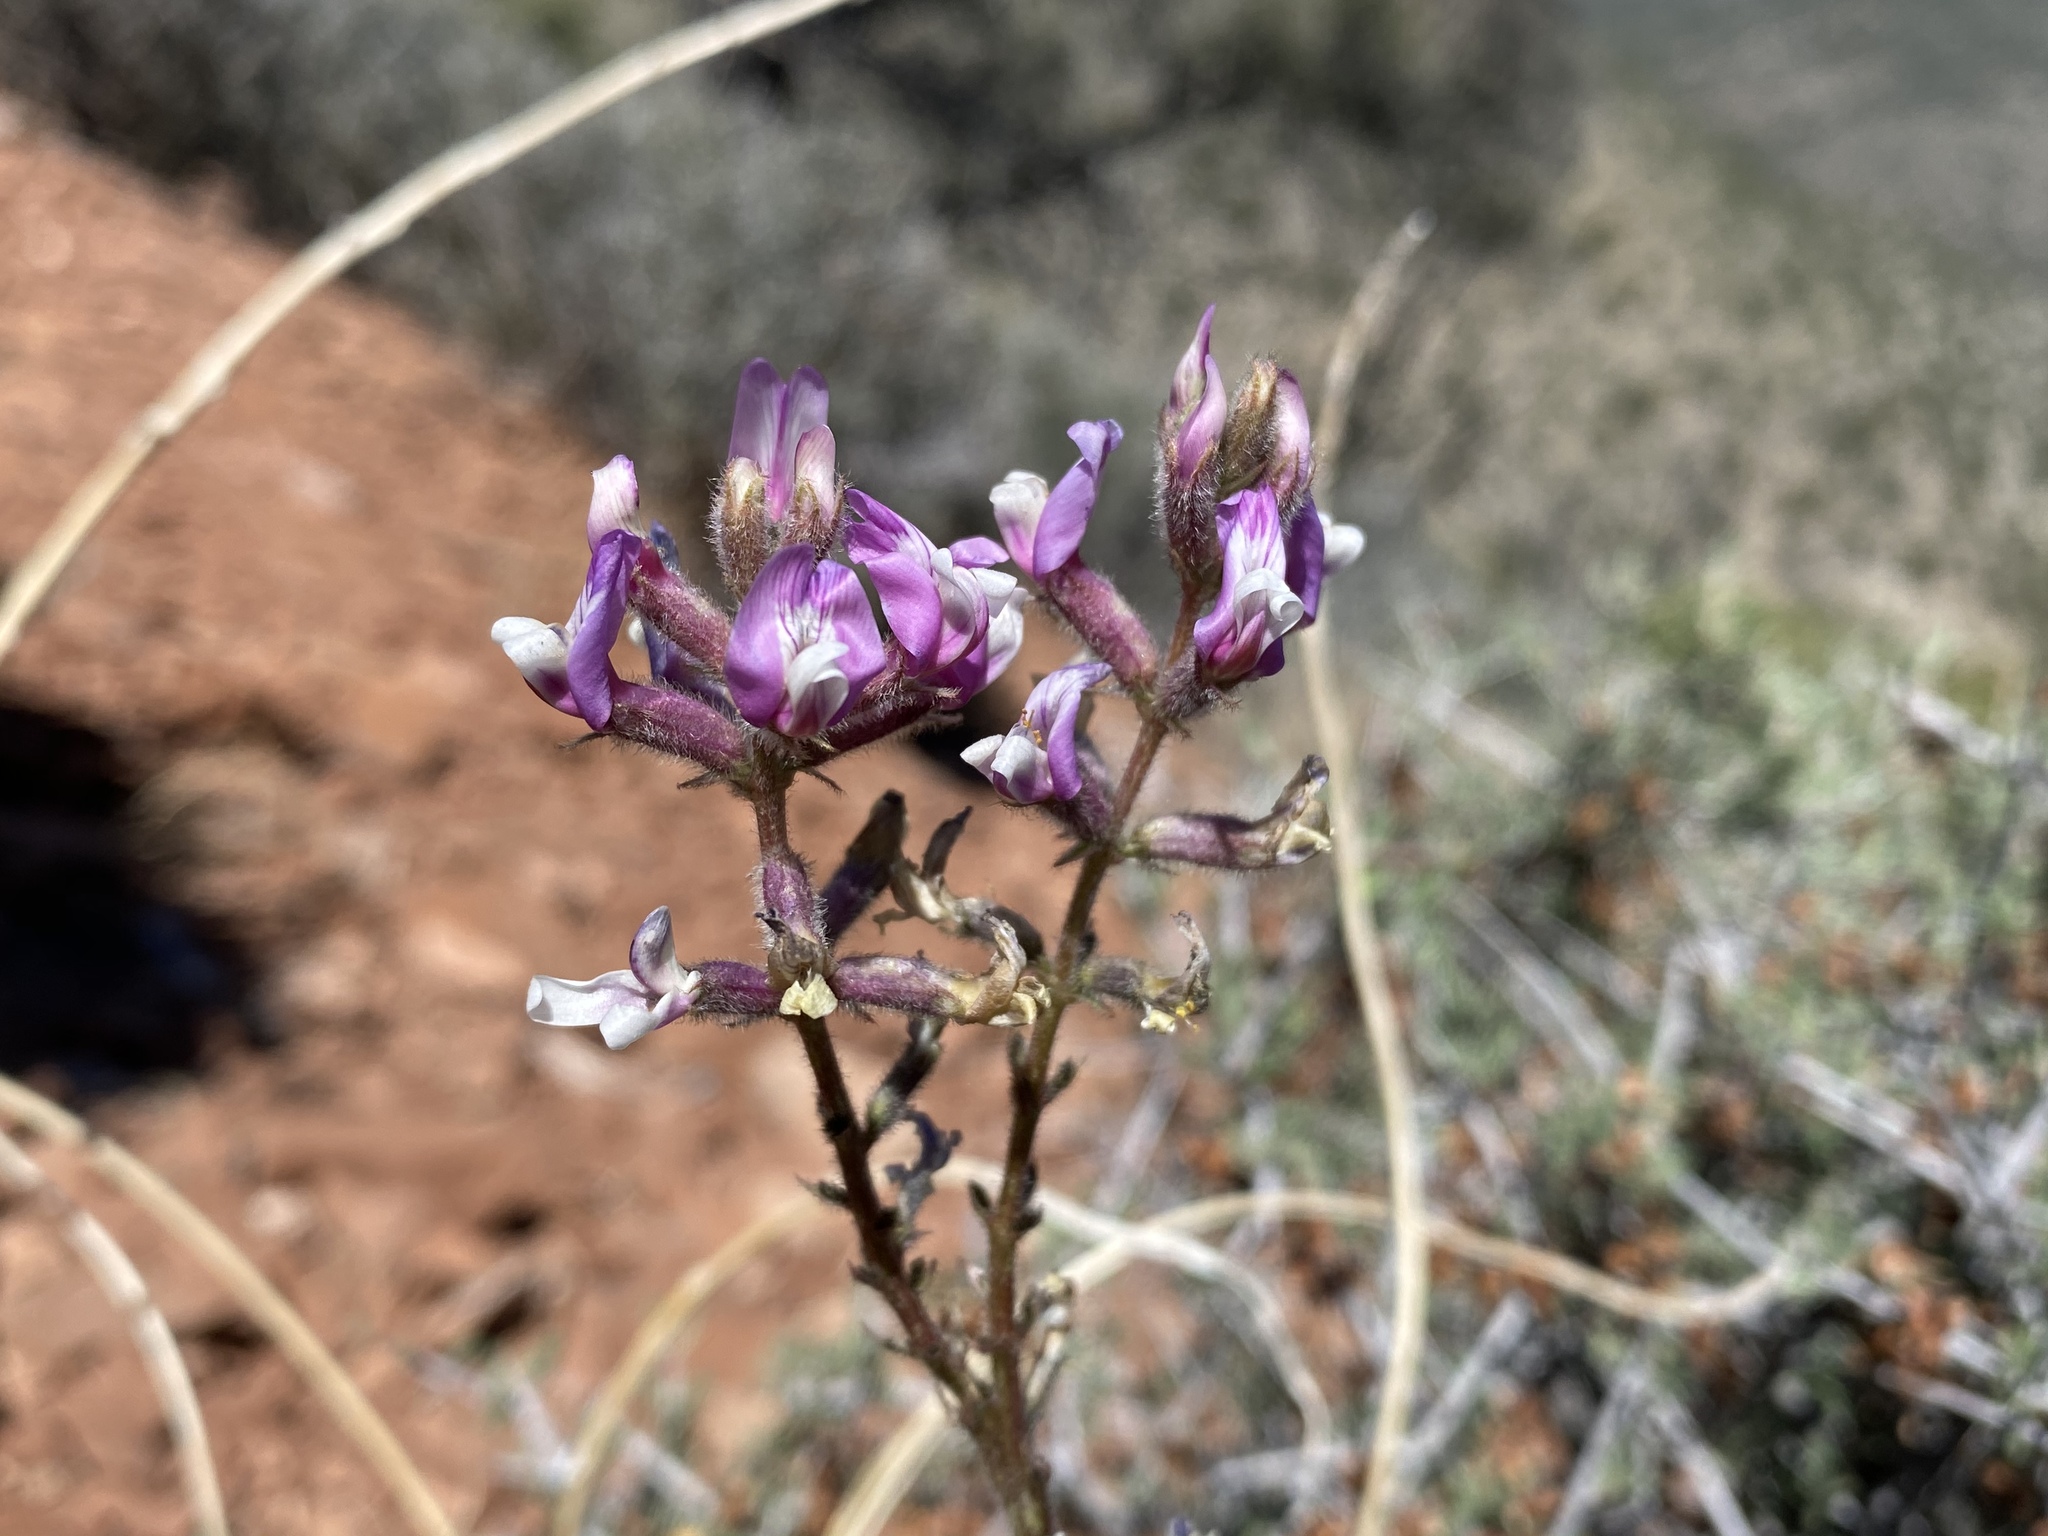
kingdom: Plantae
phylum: Tracheophyta
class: Magnoliopsida
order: Fabales
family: Fabaceae
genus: Astragalus
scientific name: Astragalus minthorniae
